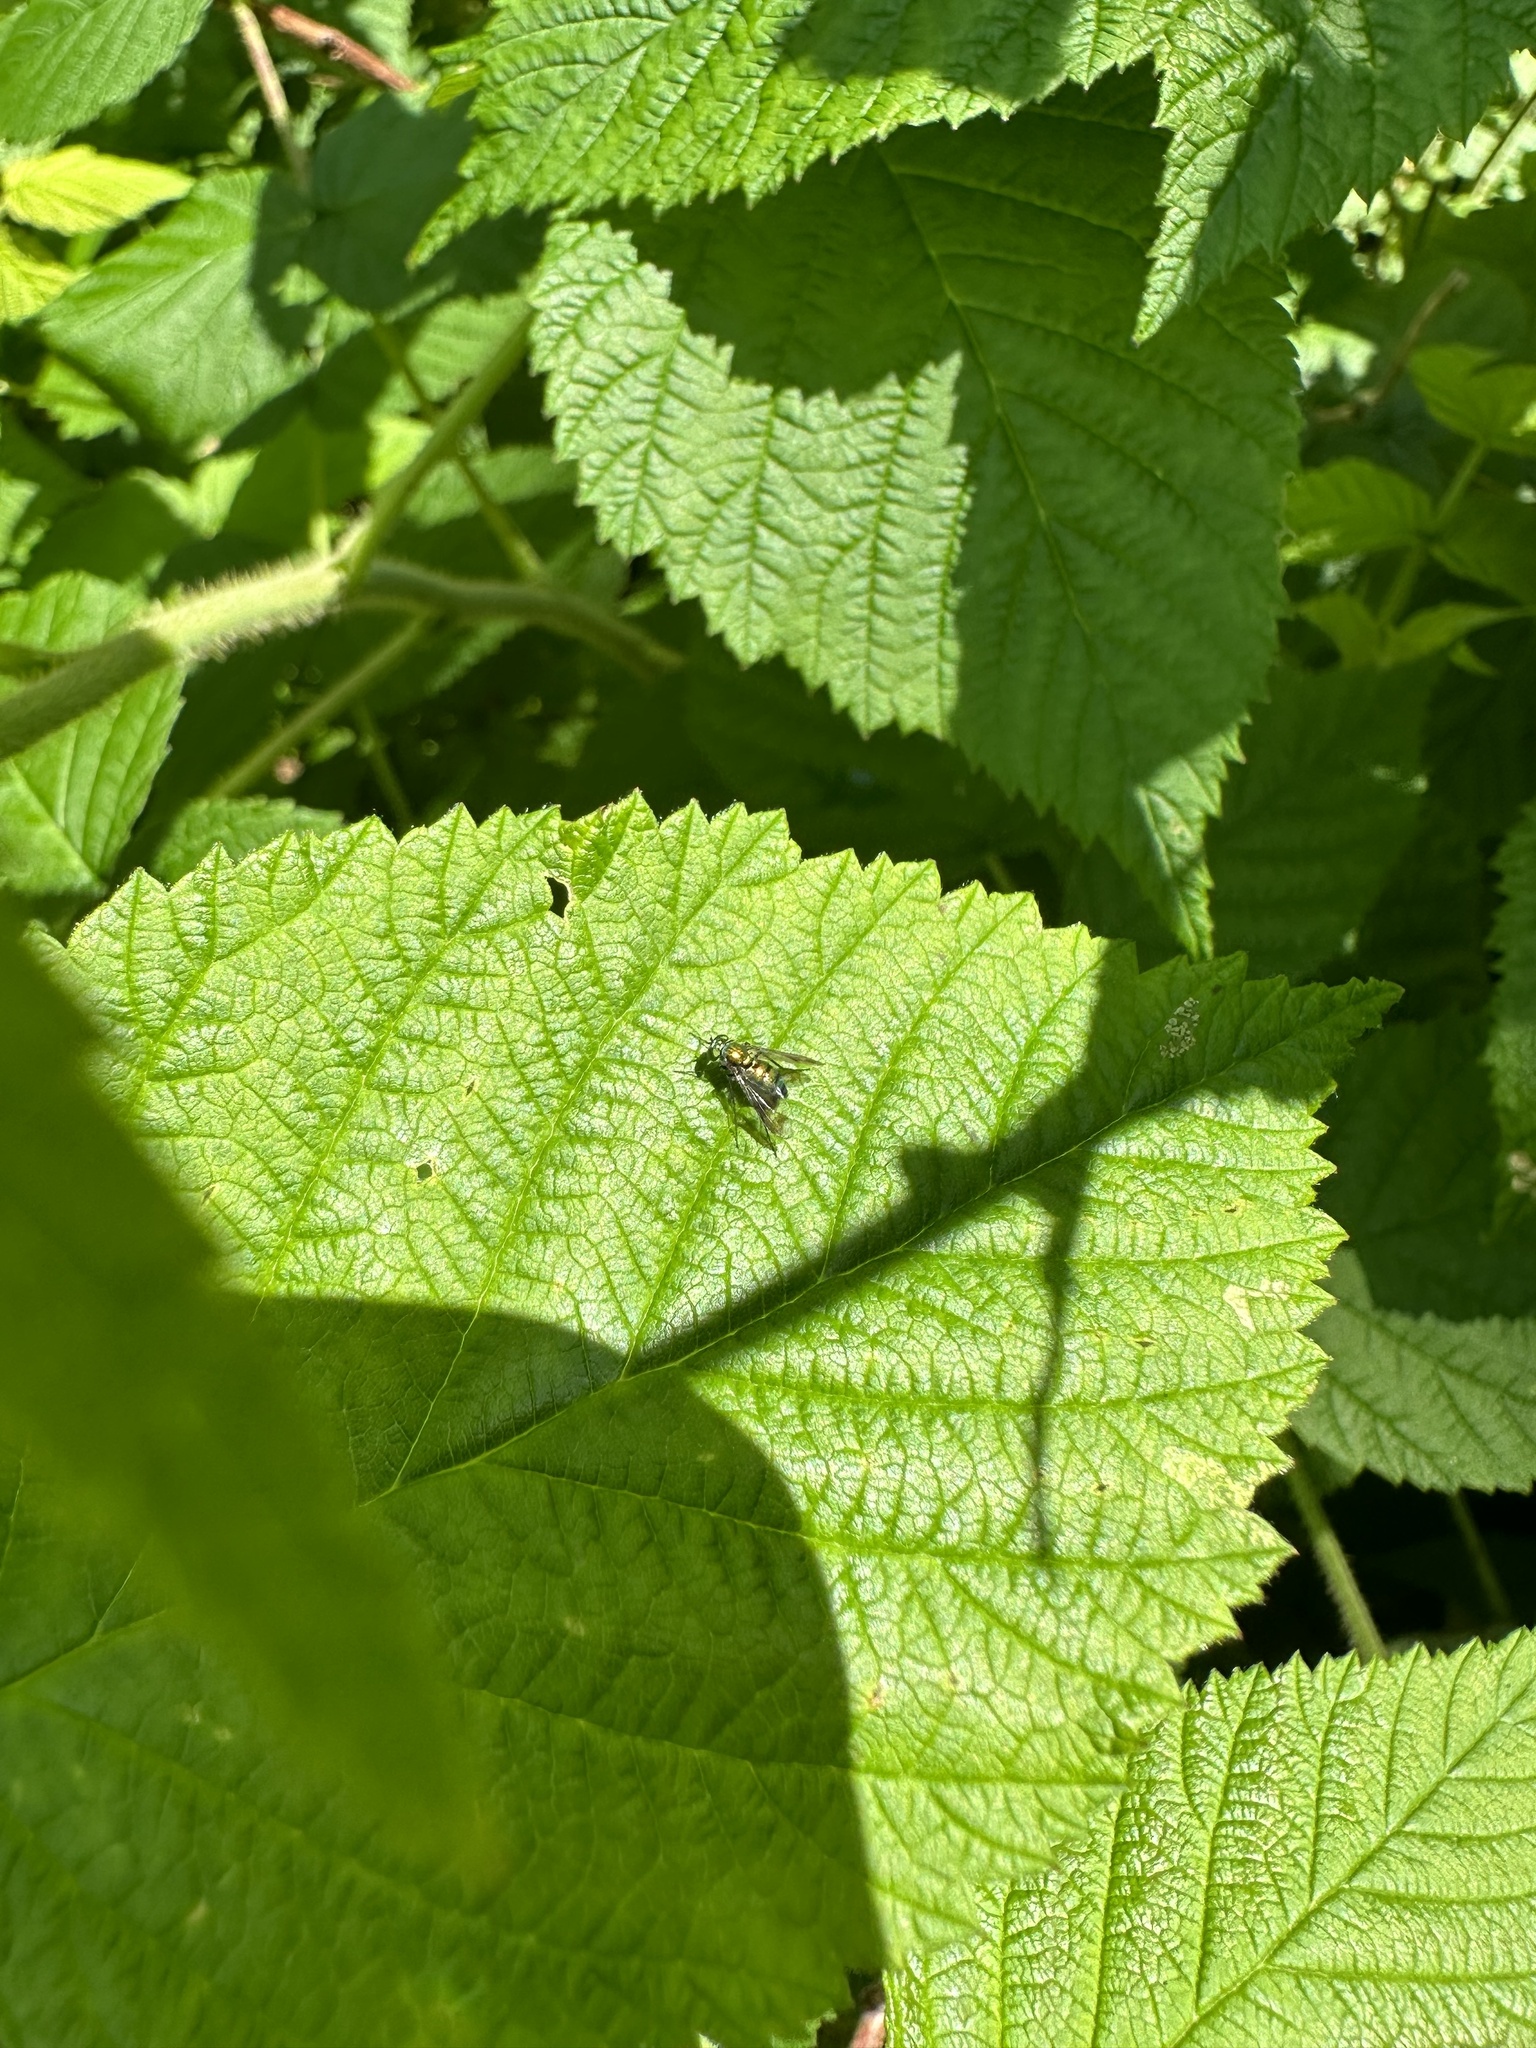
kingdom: Animalia
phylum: Arthropoda
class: Insecta
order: Diptera
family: Dolichopodidae
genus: Condylostylus
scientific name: Condylostylus patibulatus
